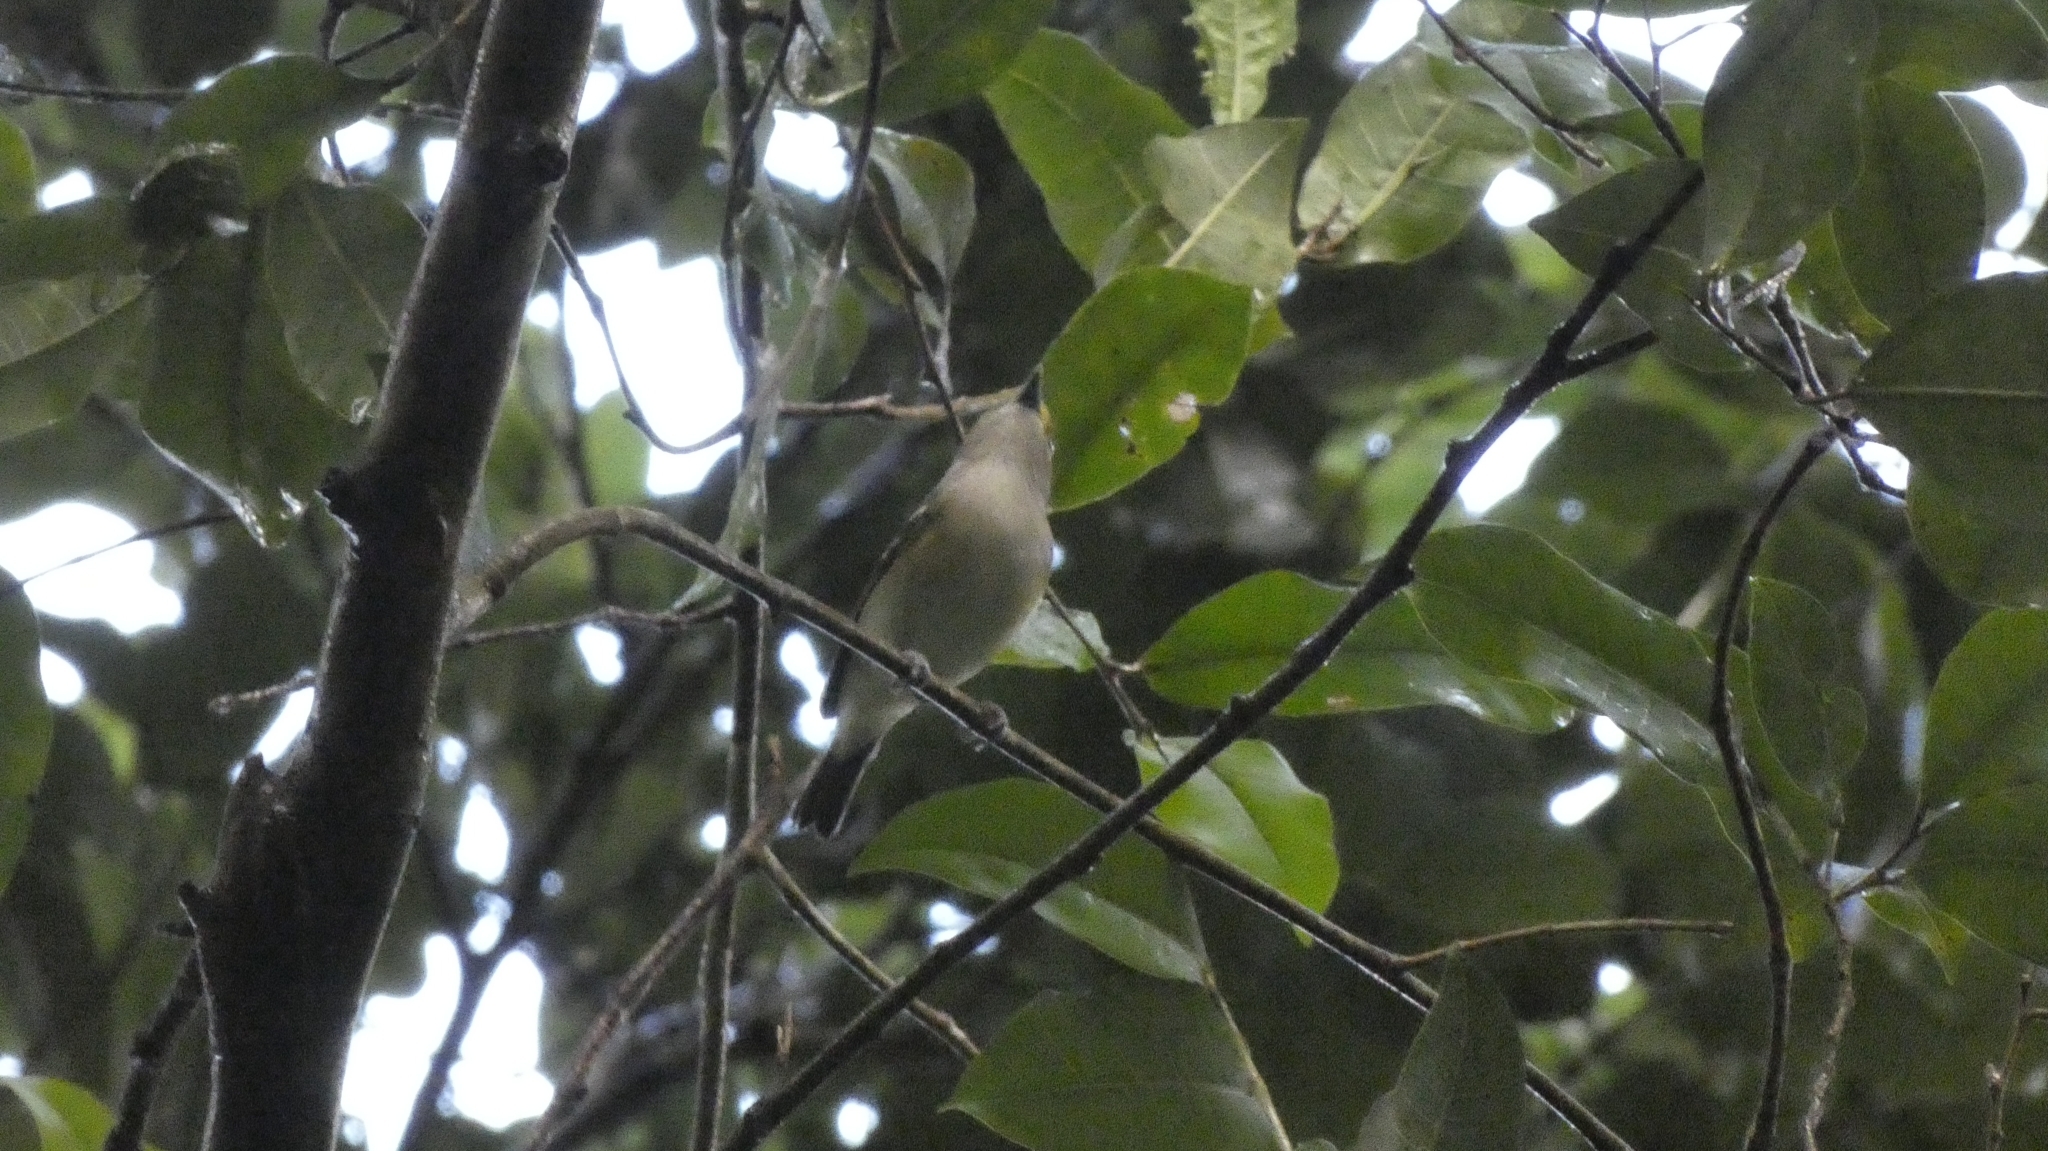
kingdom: Animalia
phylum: Chordata
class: Aves
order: Passeriformes
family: Vireonidae
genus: Vireo
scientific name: Vireo griseus
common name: White-eyed vireo
